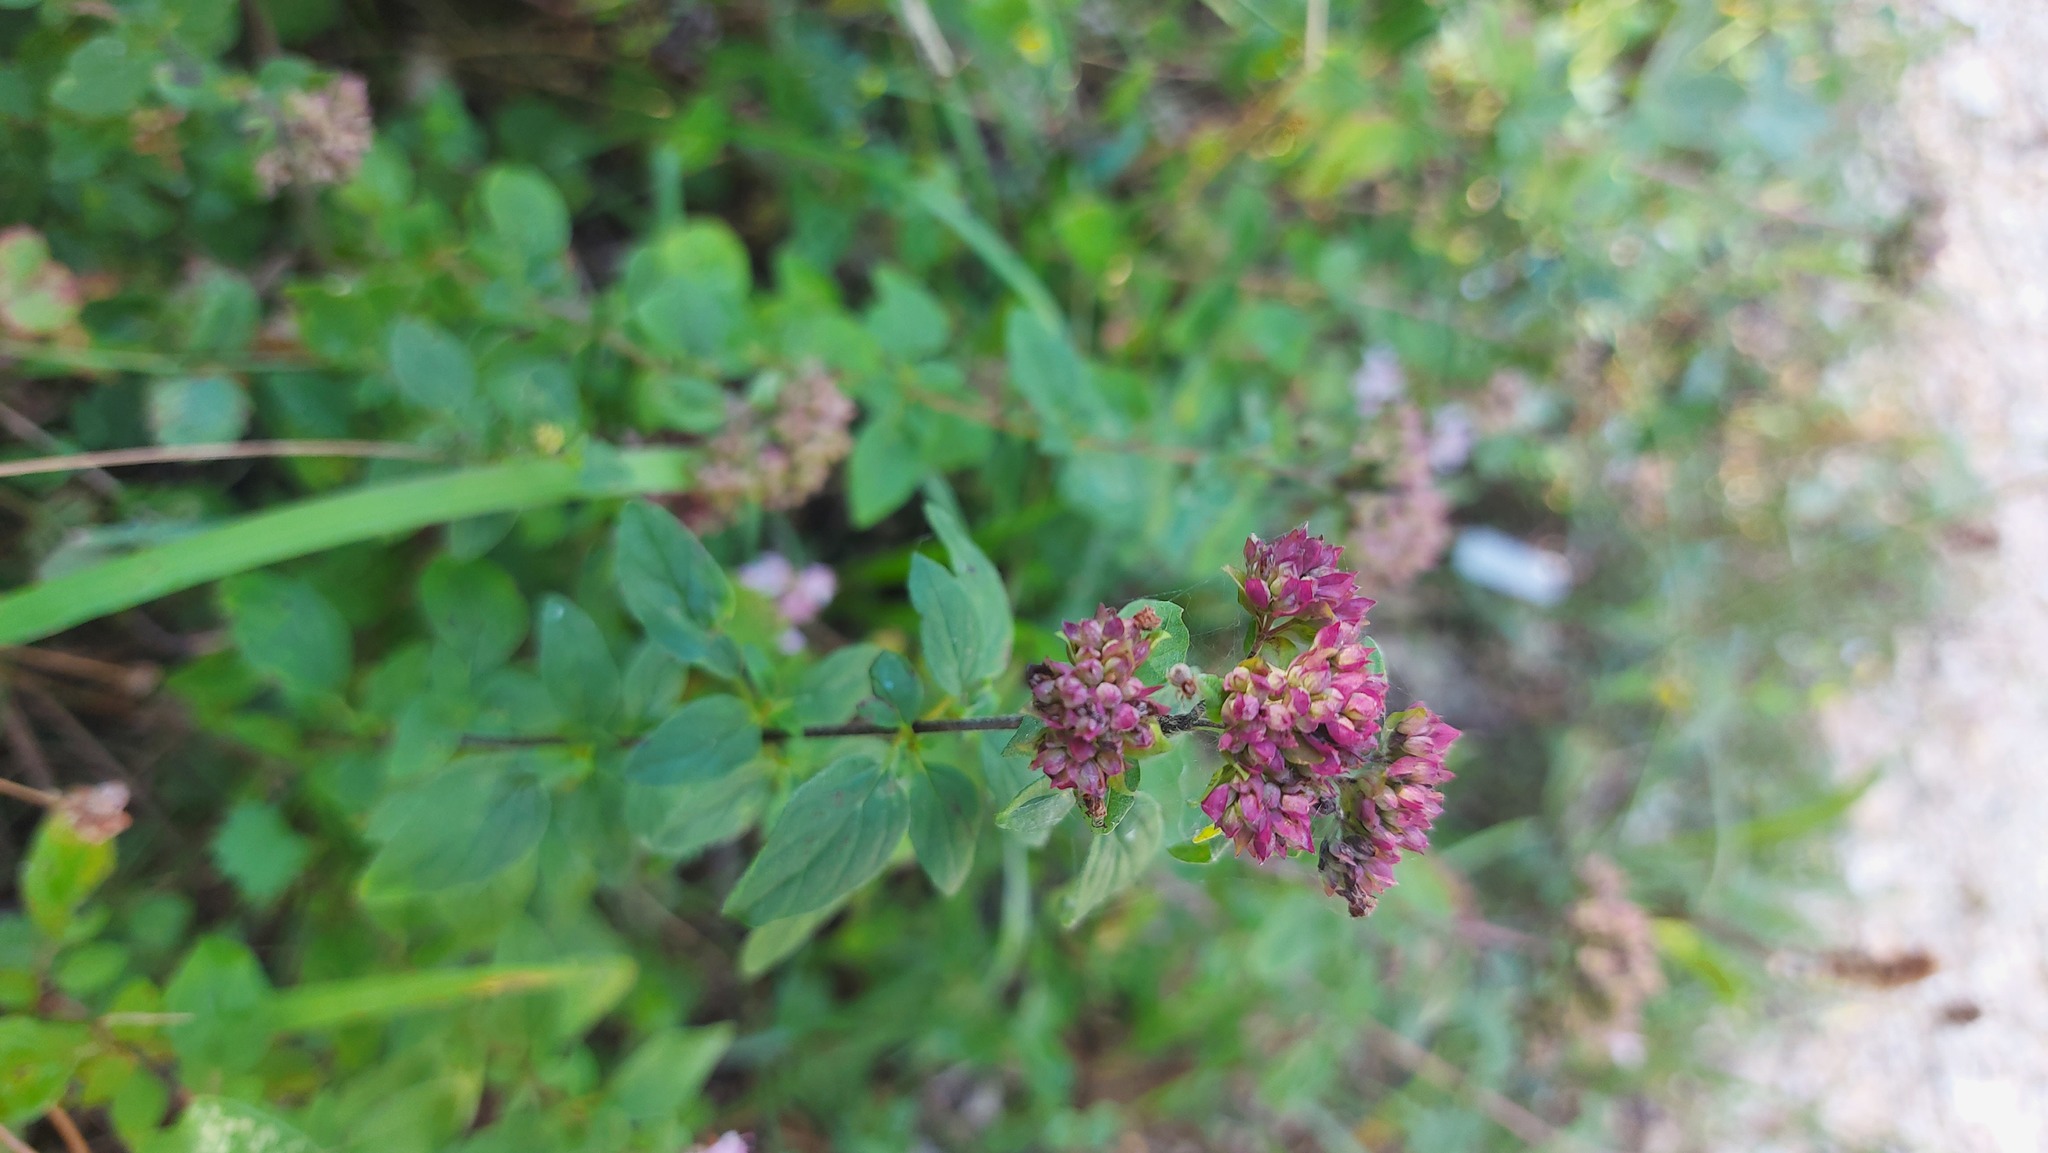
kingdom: Plantae
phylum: Tracheophyta
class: Magnoliopsida
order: Lamiales
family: Lamiaceae
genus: Origanum
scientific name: Origanum vulgare
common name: Wild marjoram
